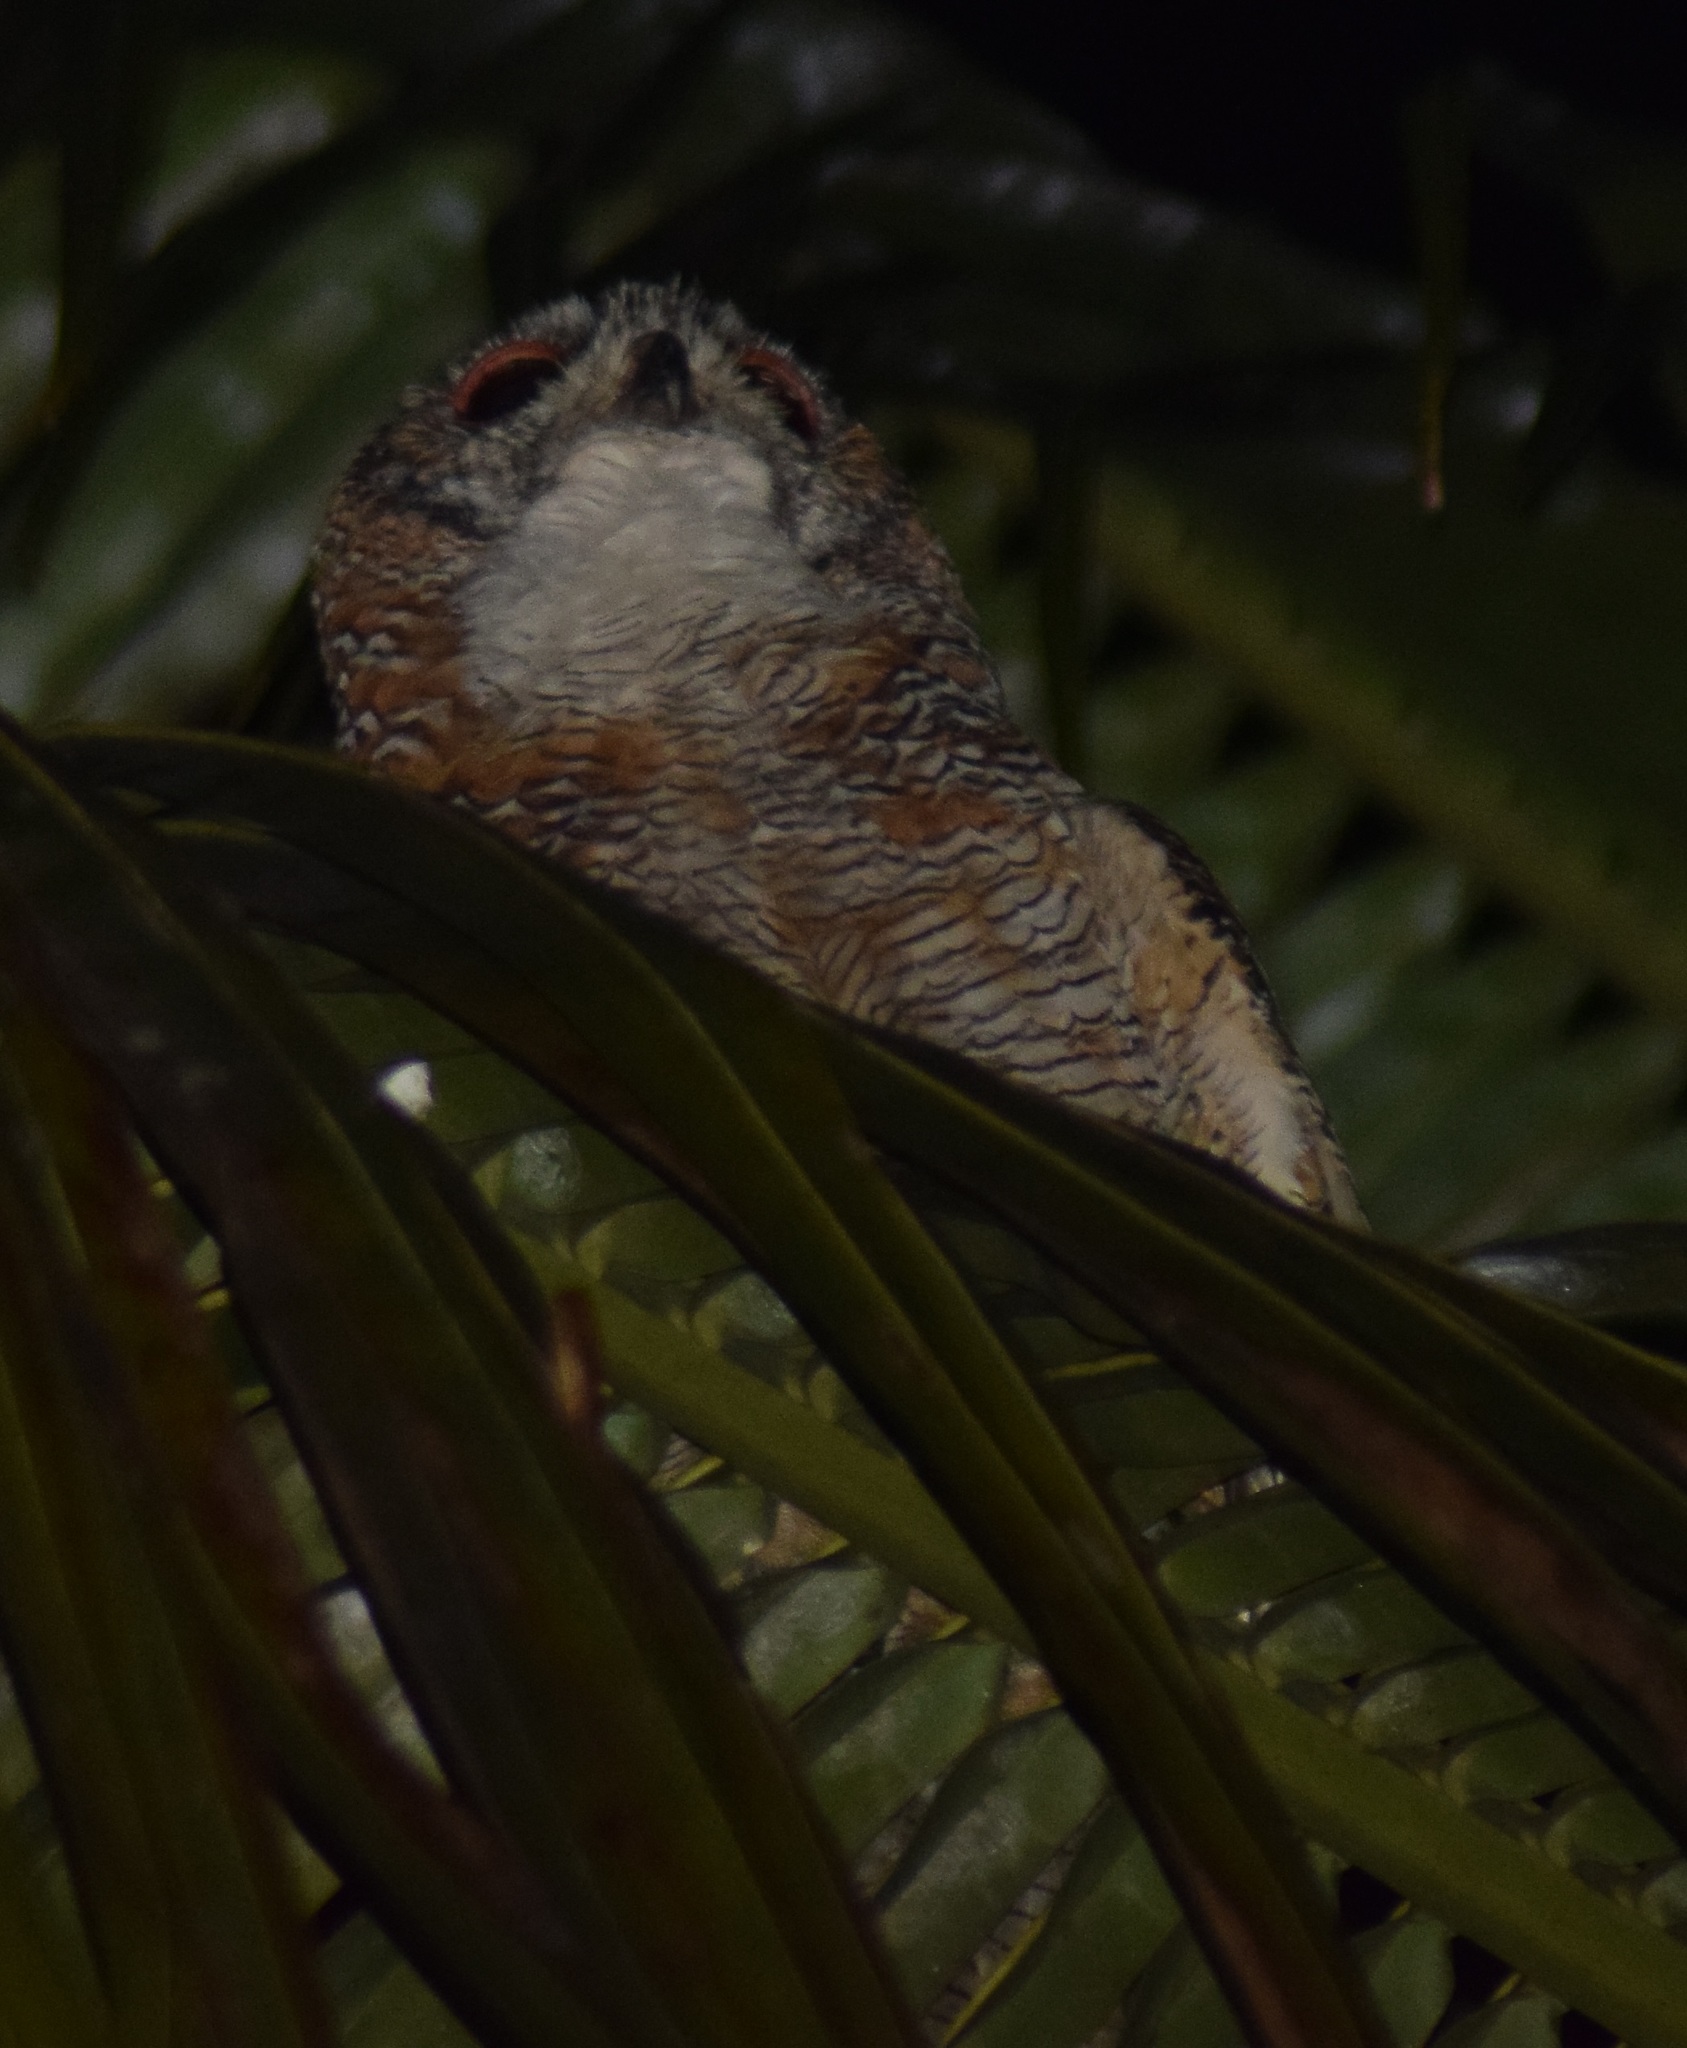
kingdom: Animalia
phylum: Chordata
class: Aves
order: Strigiformes
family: Strigidae
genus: Strix
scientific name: Strix ocellata
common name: Mottled wood owl
